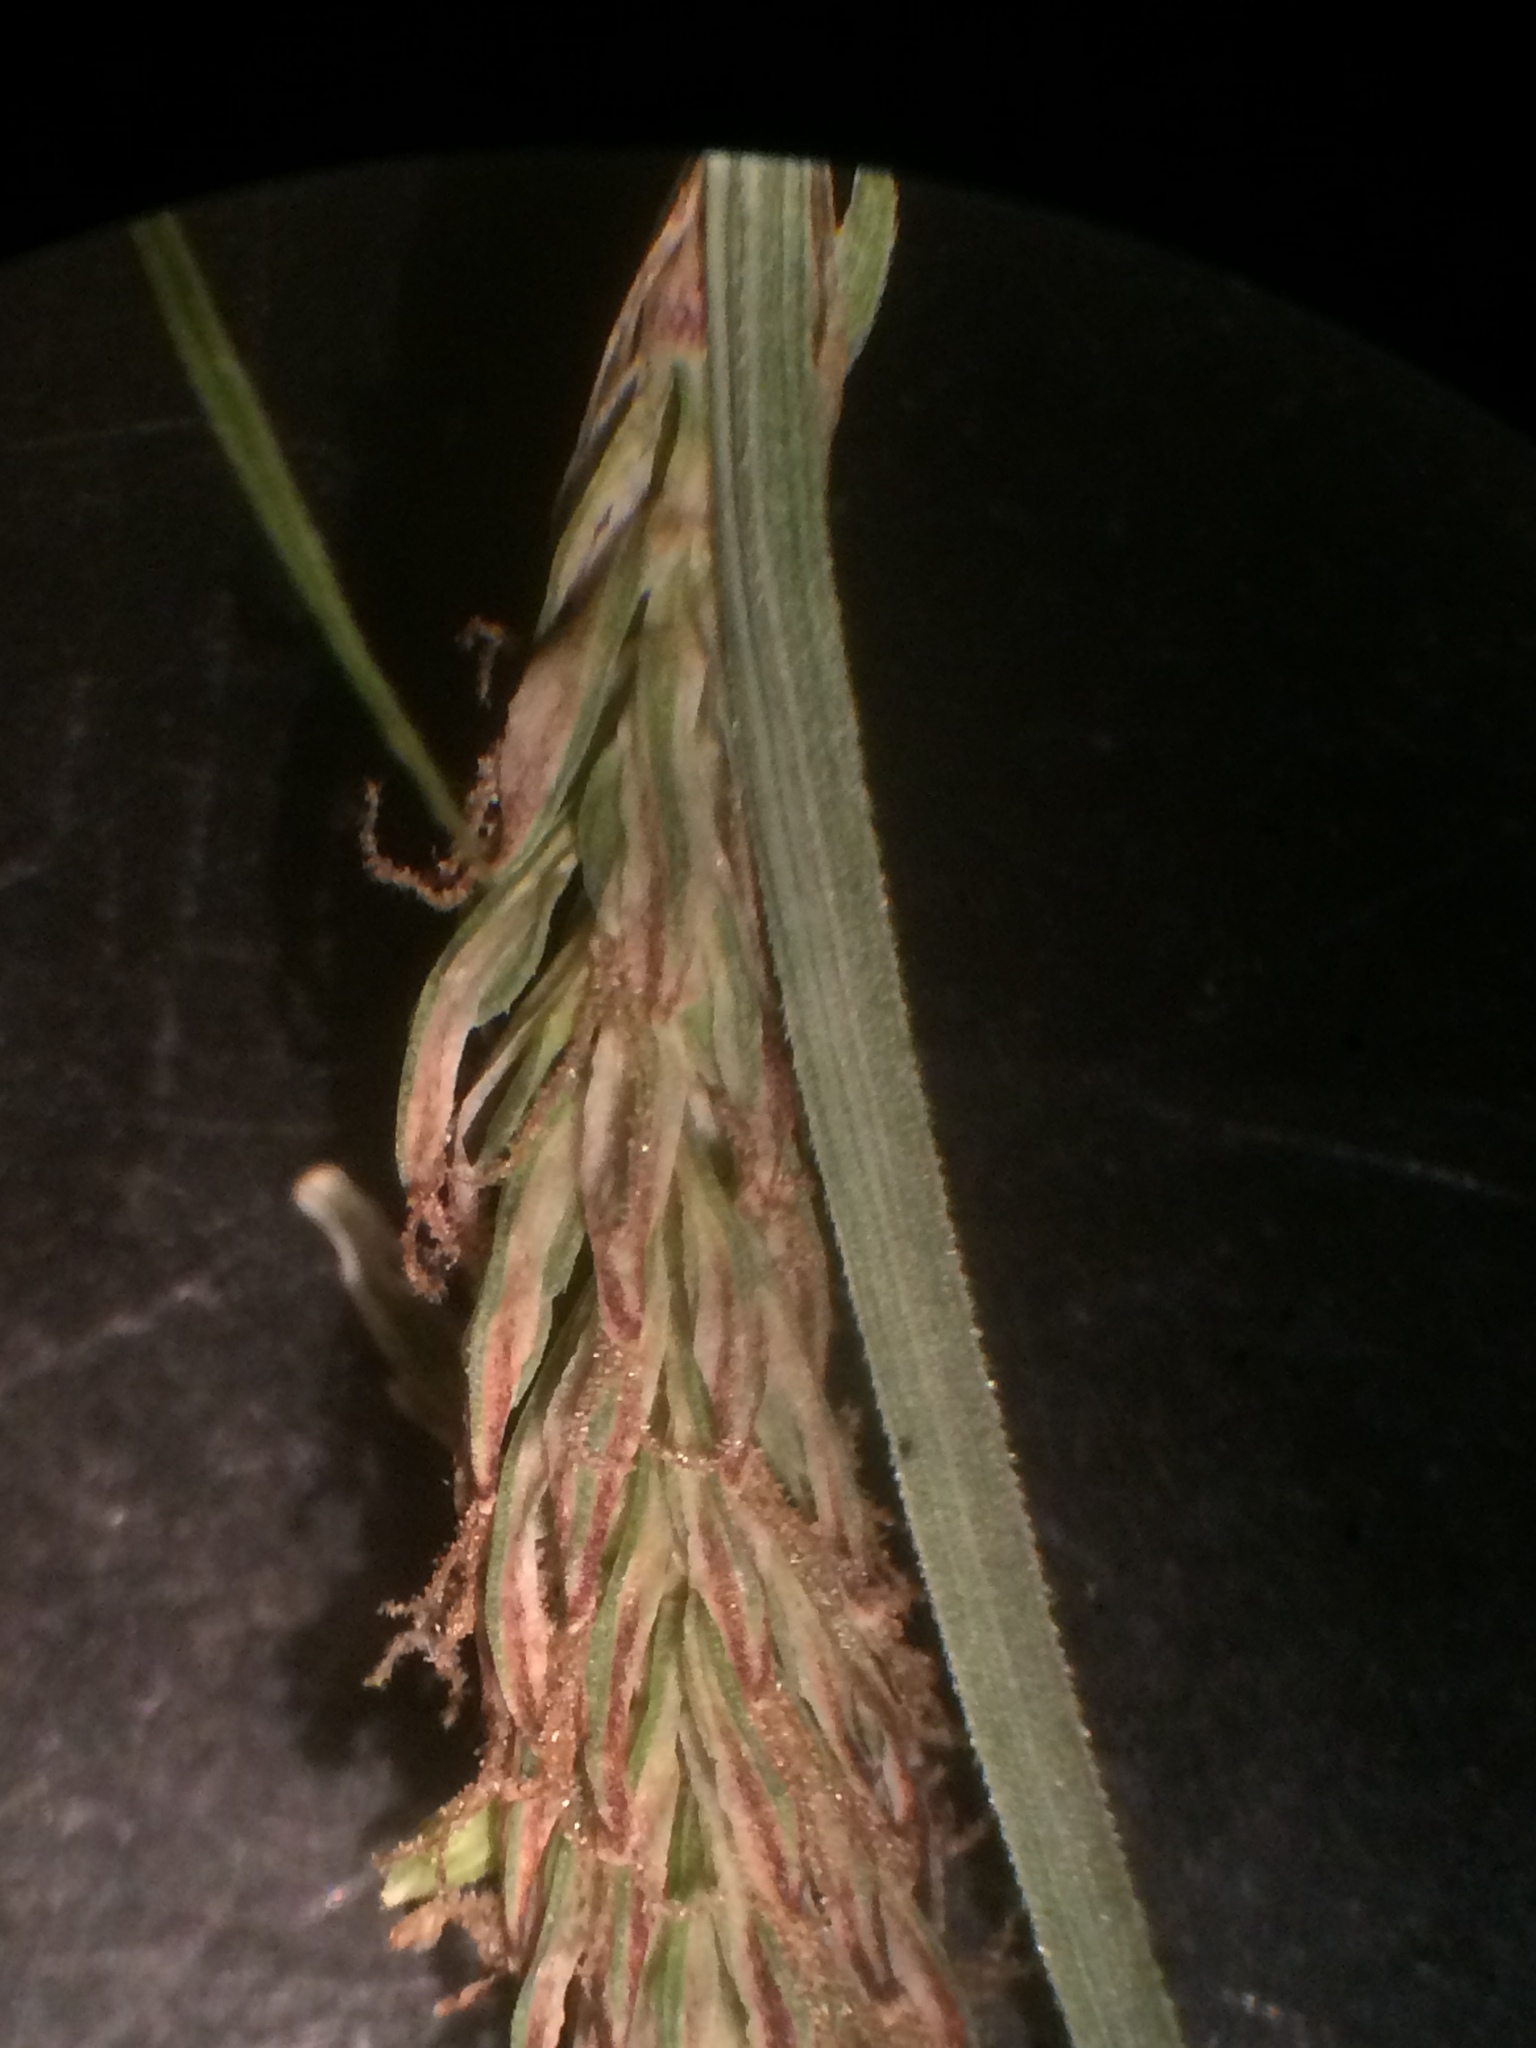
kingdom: Plantae
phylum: Tracheophyta
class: Liliopsida
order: Poales
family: Cyperaceae
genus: Carex
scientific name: Carex barrattii
